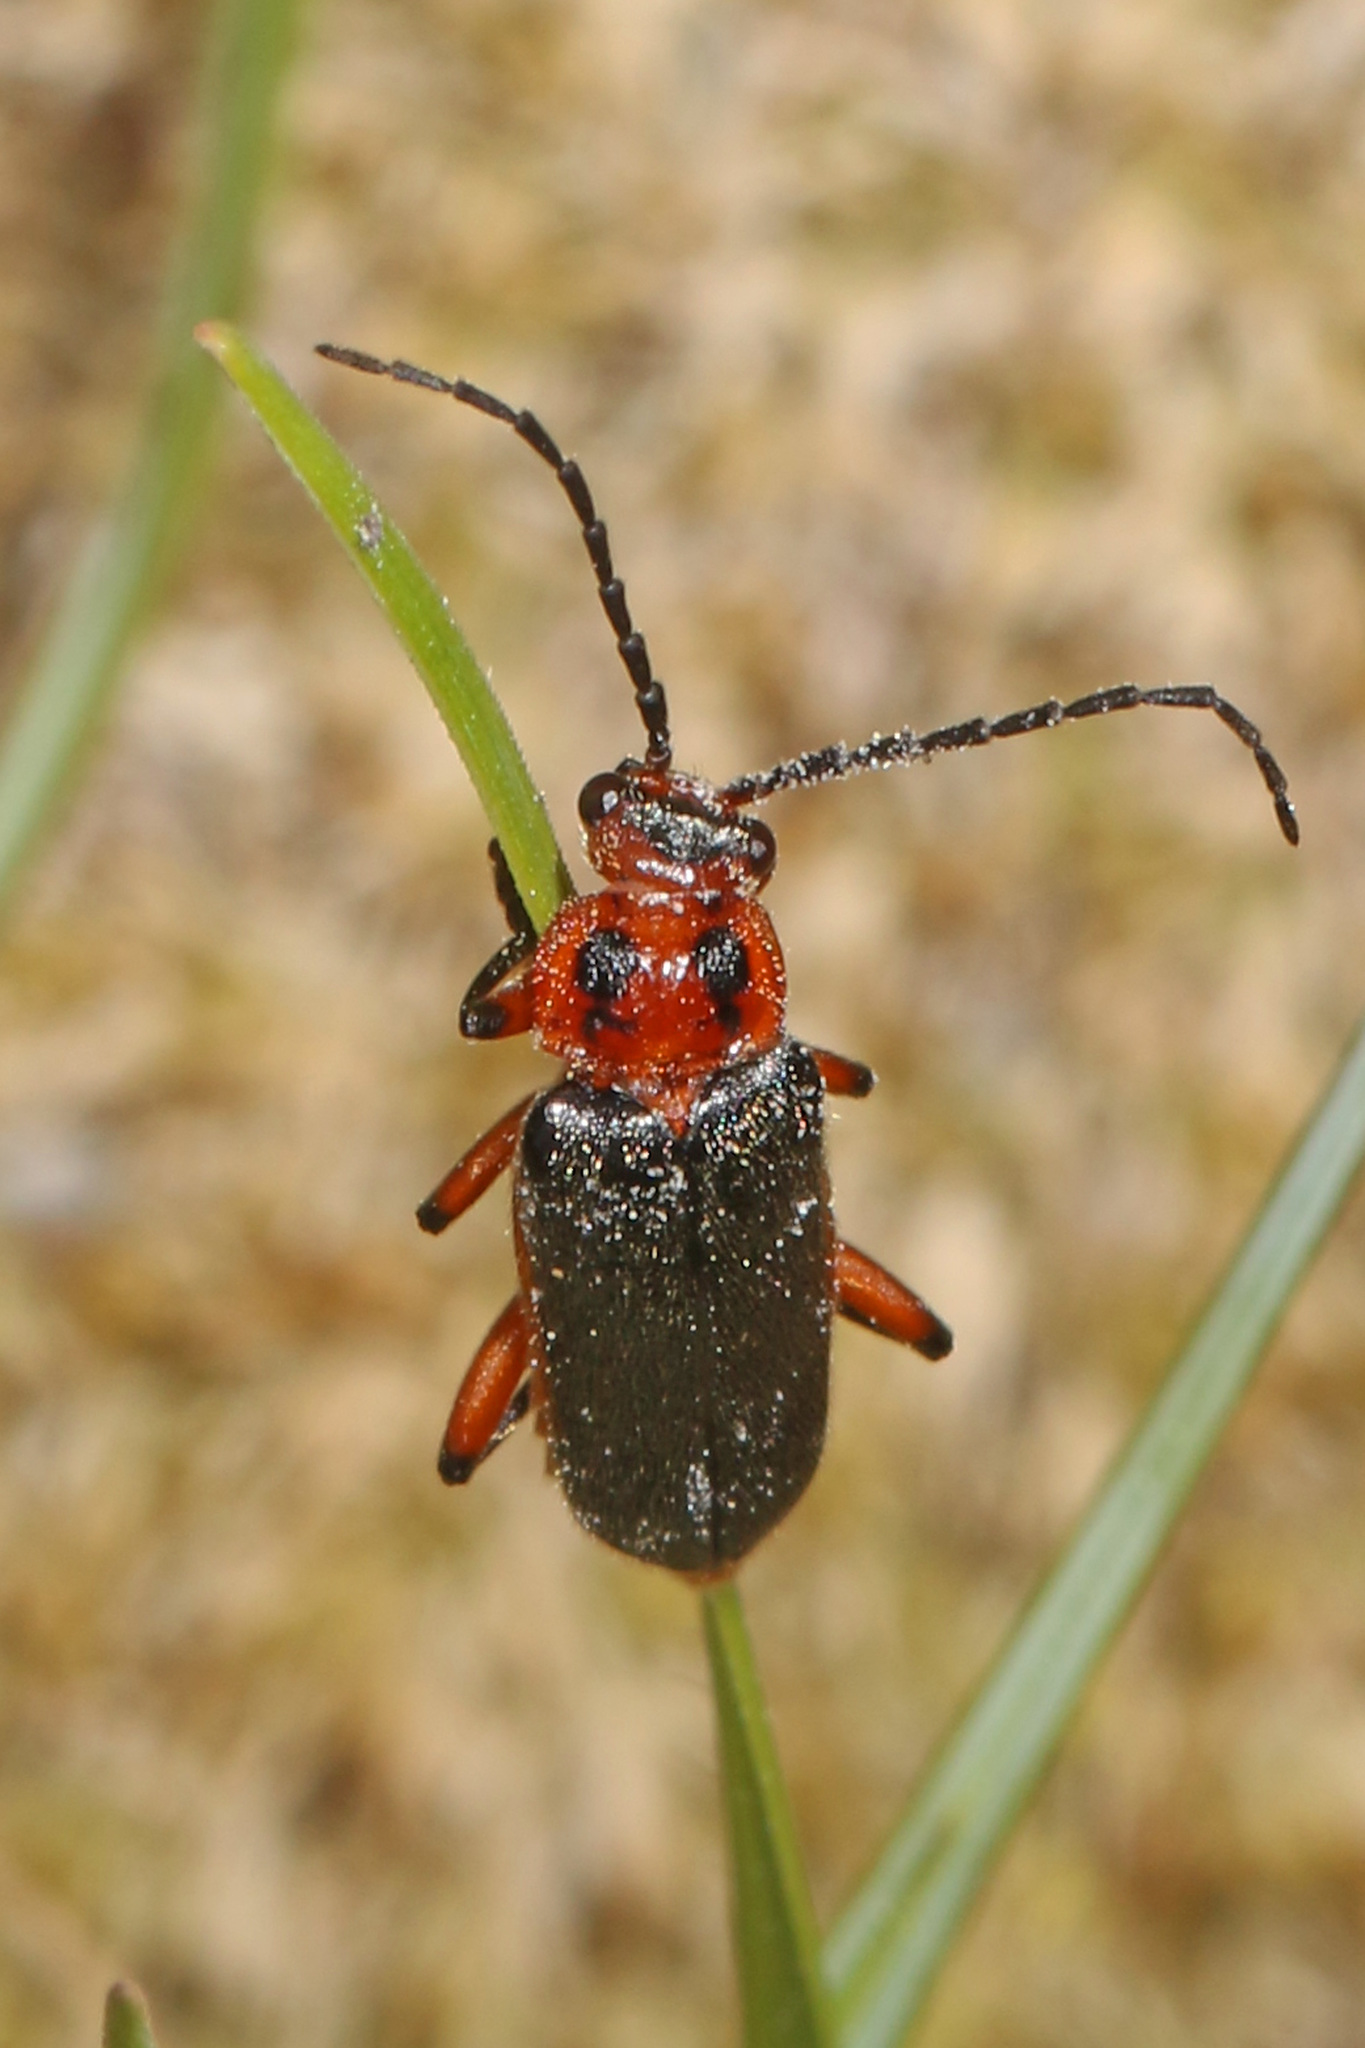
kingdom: Animalia
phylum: Arthropoda
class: Insecta
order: Coleoptera
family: Cantharidae
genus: Atalantycha
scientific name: Atalantycha bilineata
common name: Two-lined leatherwing
